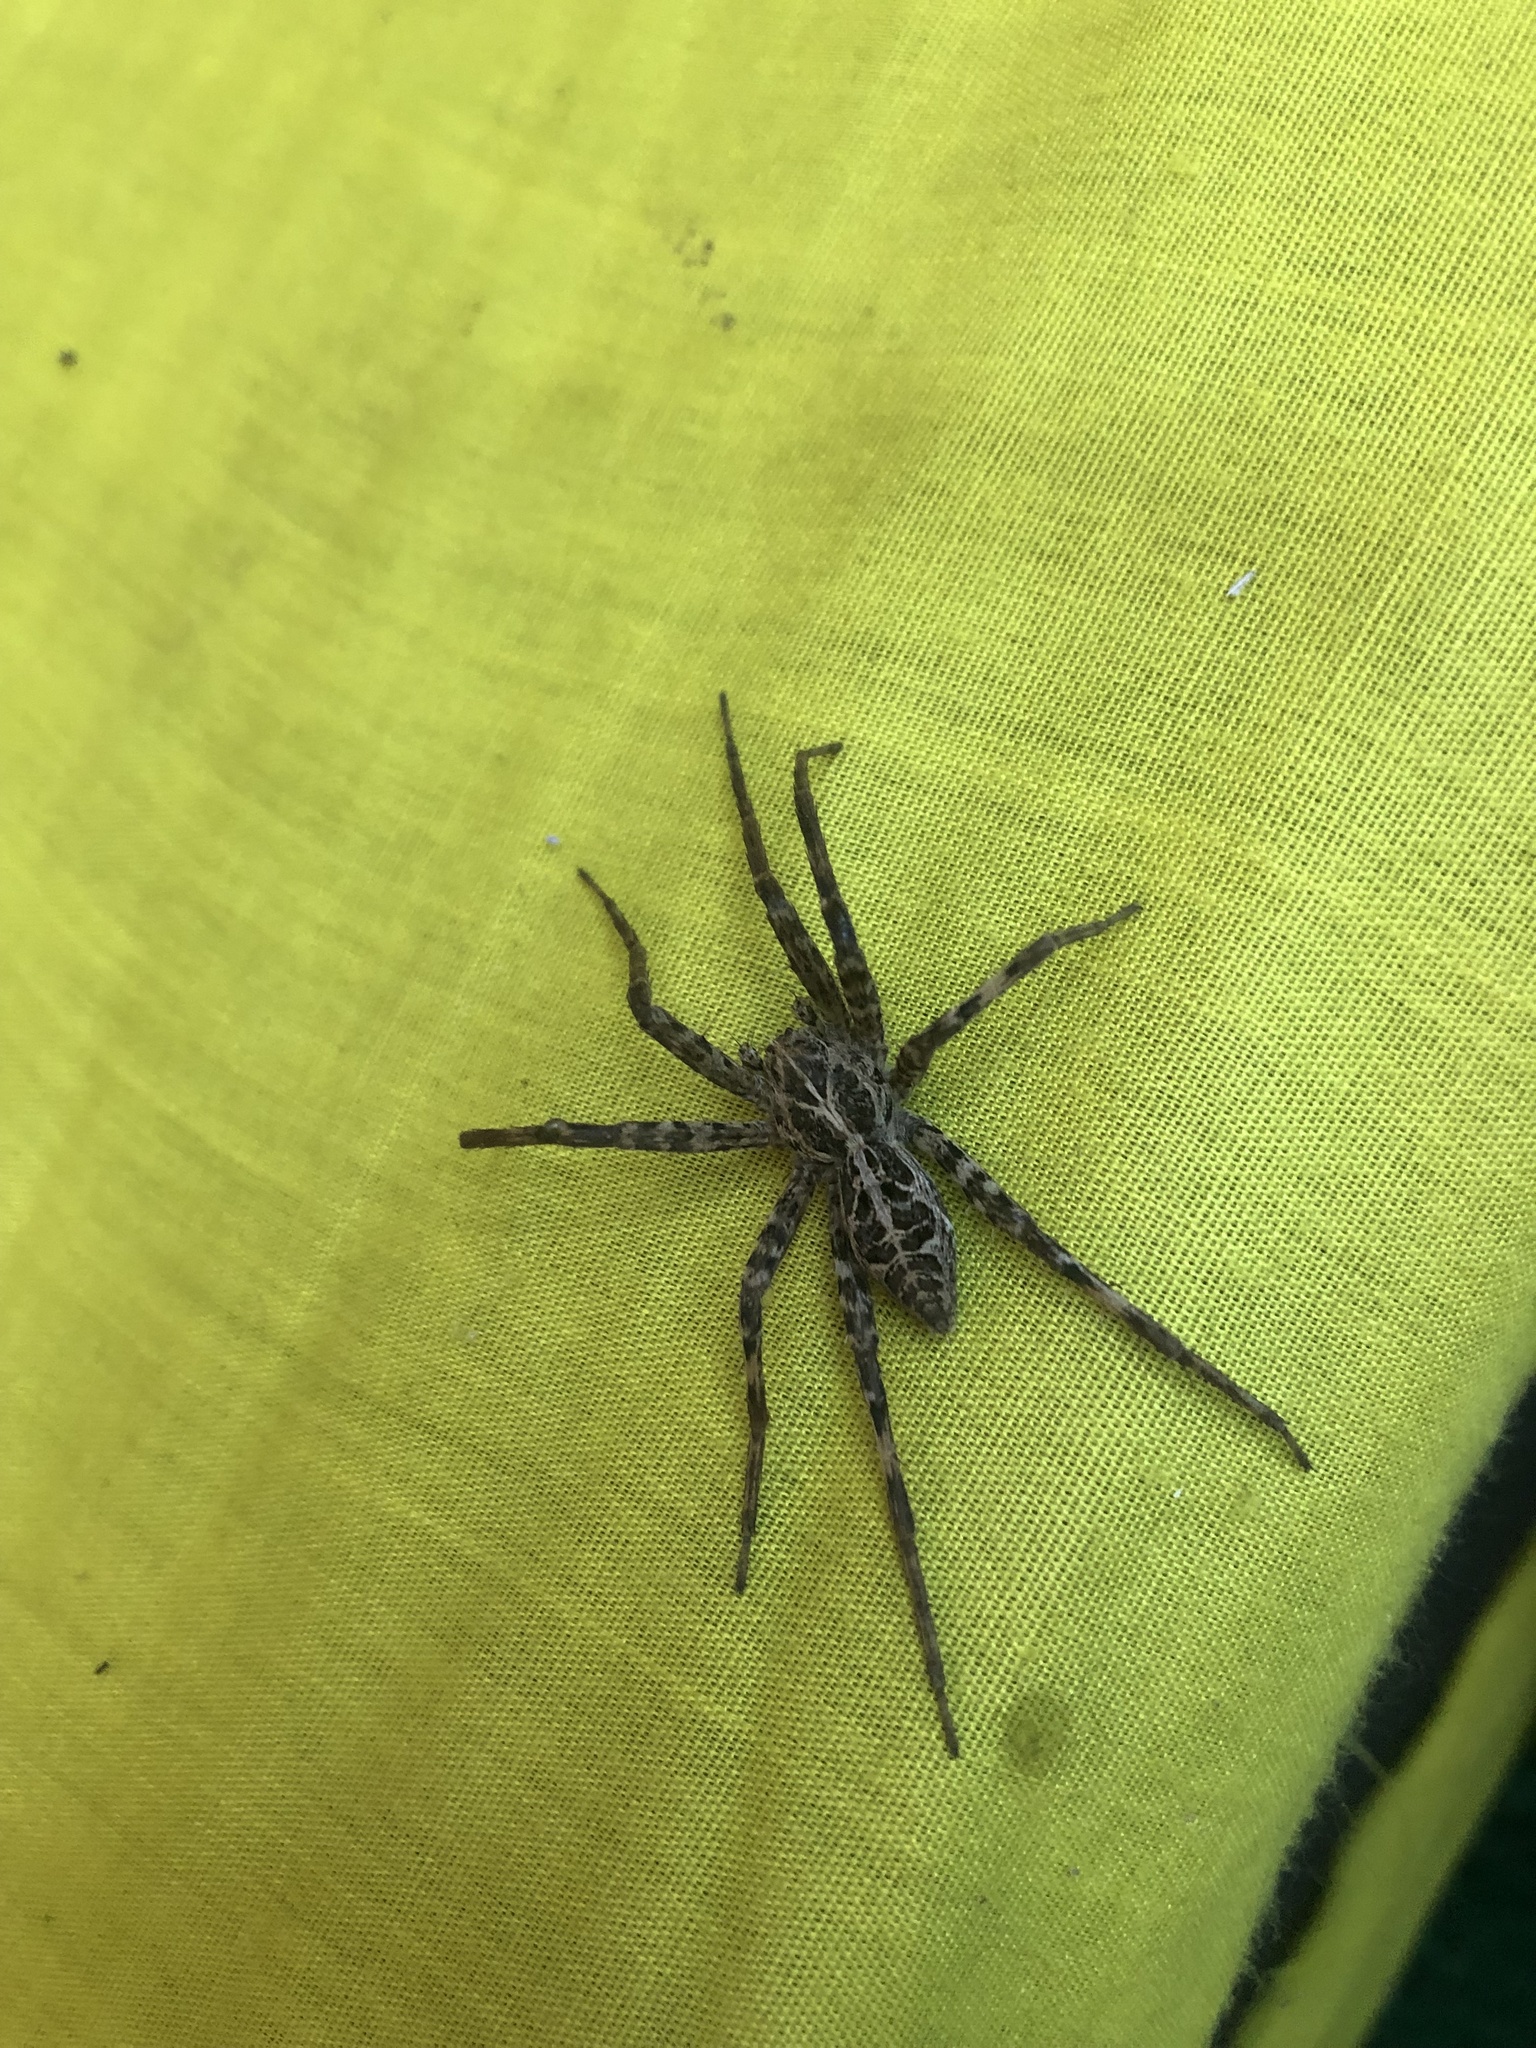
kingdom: Animalia
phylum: Arthropoda
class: Arachnida
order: Araneae
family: Pisauridae
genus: Rothus
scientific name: Rothus aethiopicus
